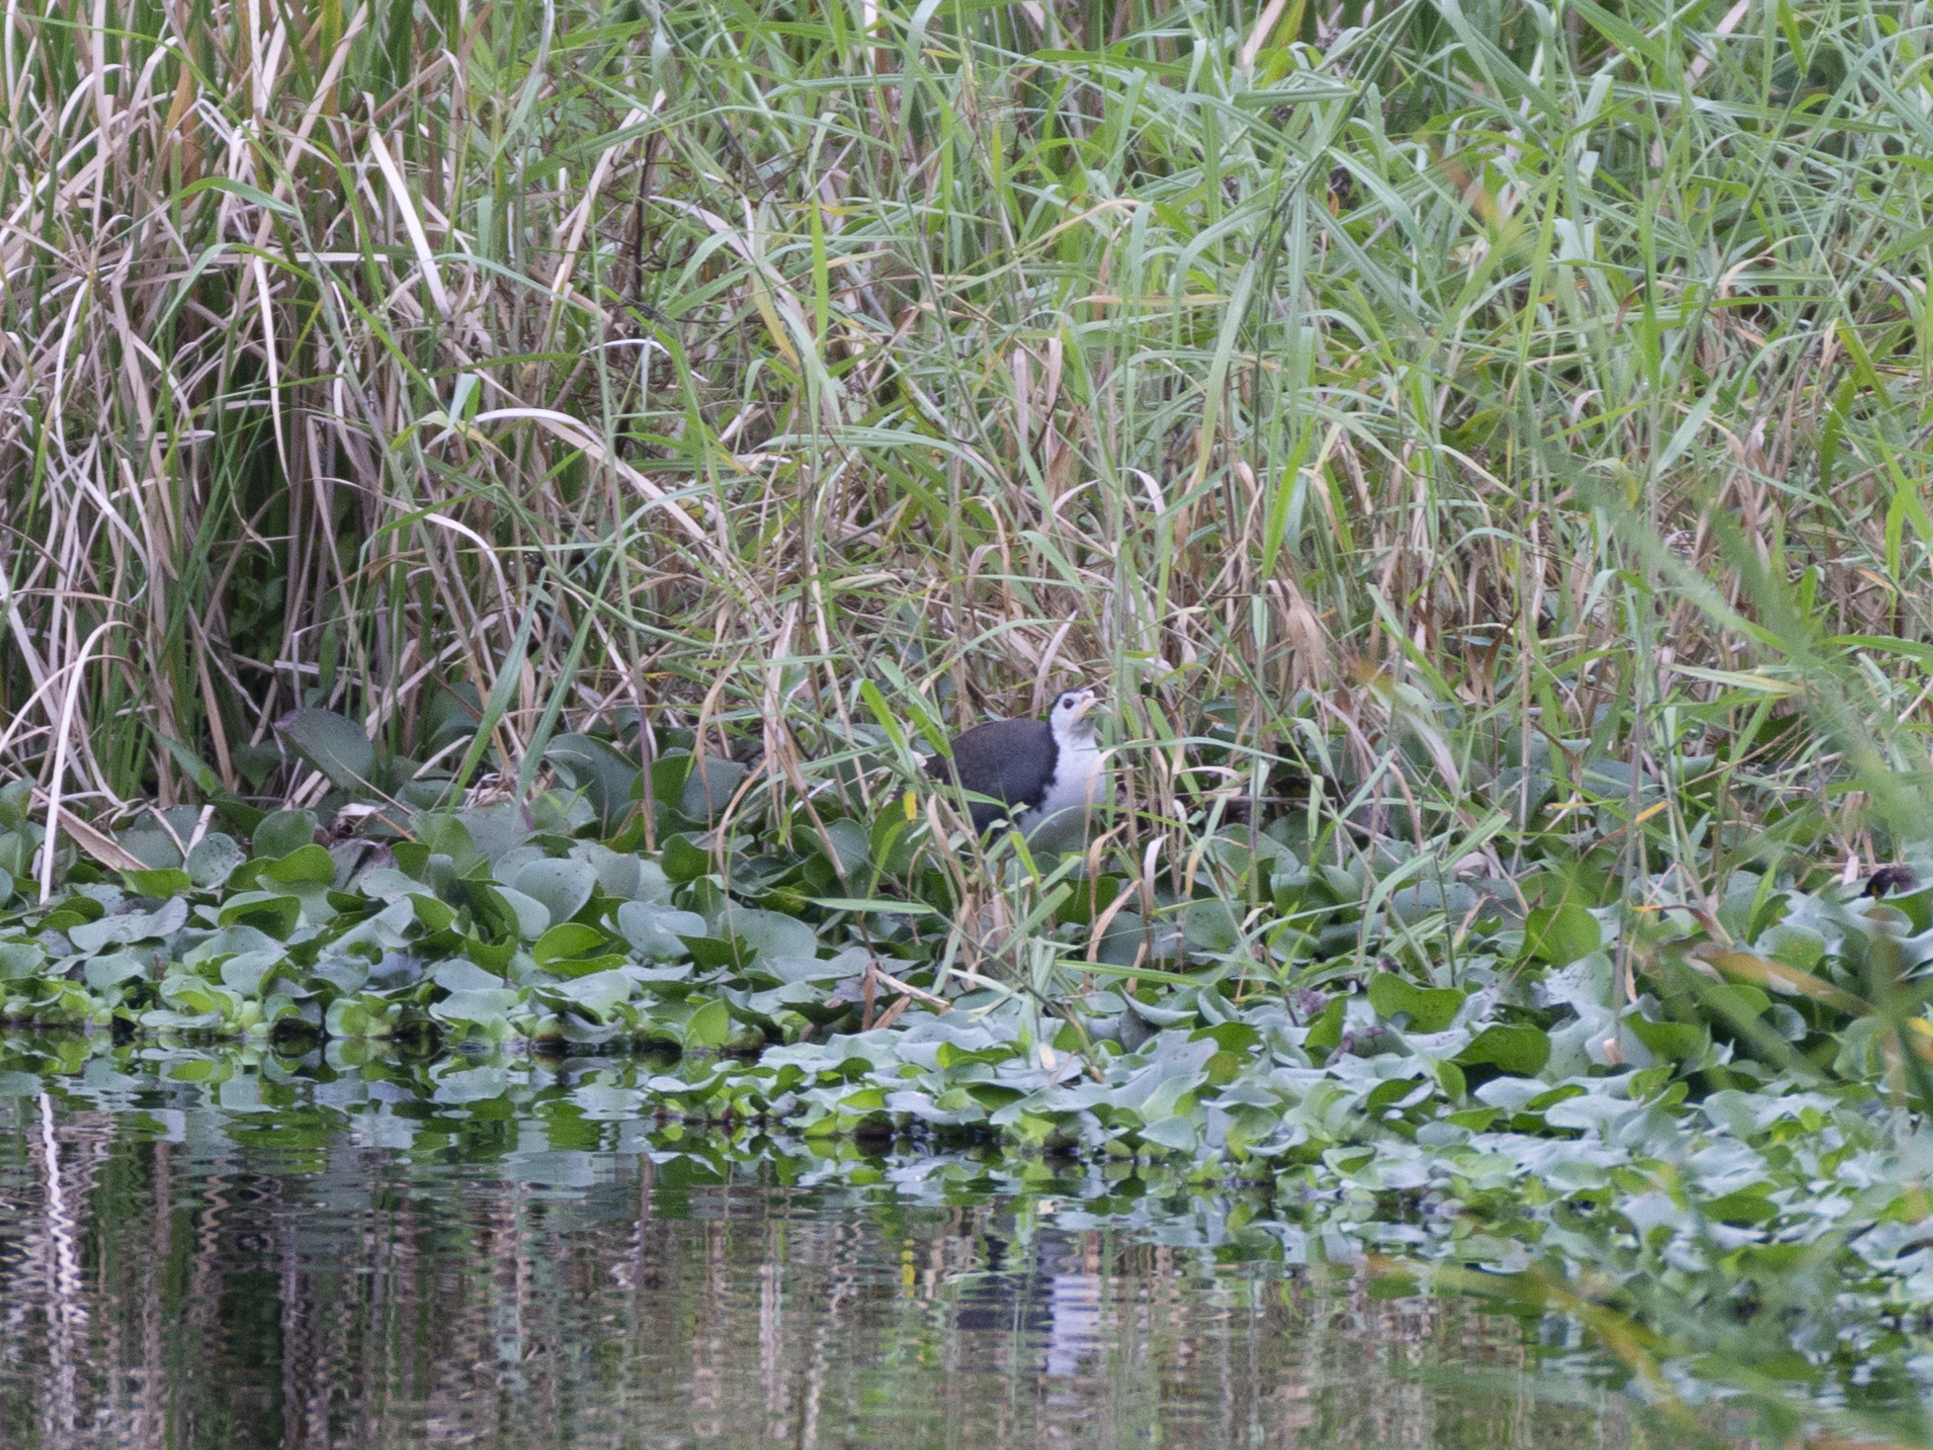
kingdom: Animalia
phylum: Chordata
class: Aves
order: Gruiformes
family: Rallidae
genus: Amaurornis
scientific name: Amaurornis phoenicurus
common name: White-breasted waterhen
